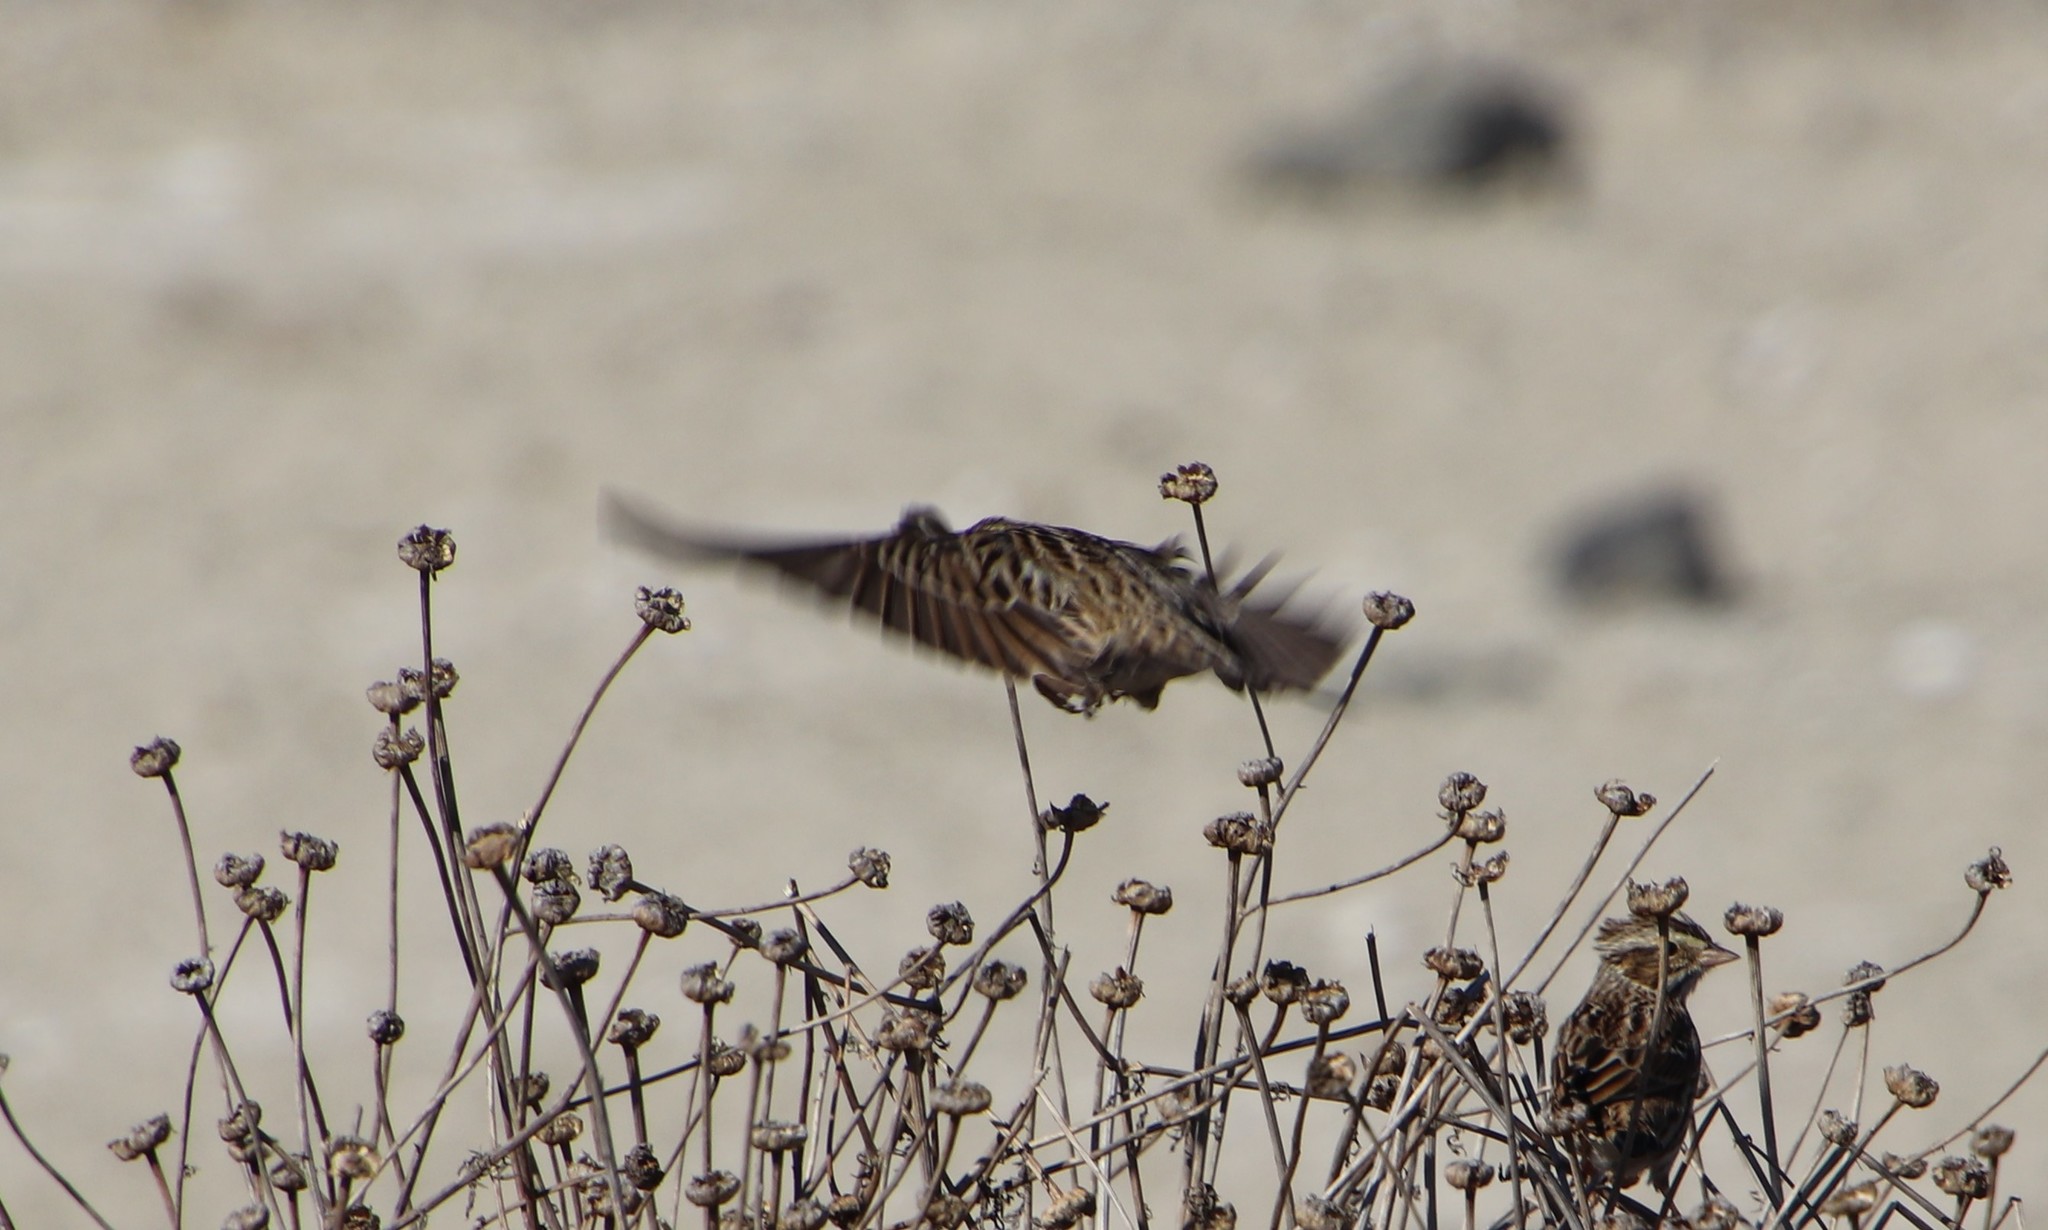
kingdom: Animalia
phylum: Chordata
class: Aves
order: Passeriformes
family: Passerellidae
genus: Passerculus
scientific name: Passerculus sandwichensis
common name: Savannah sparrow
